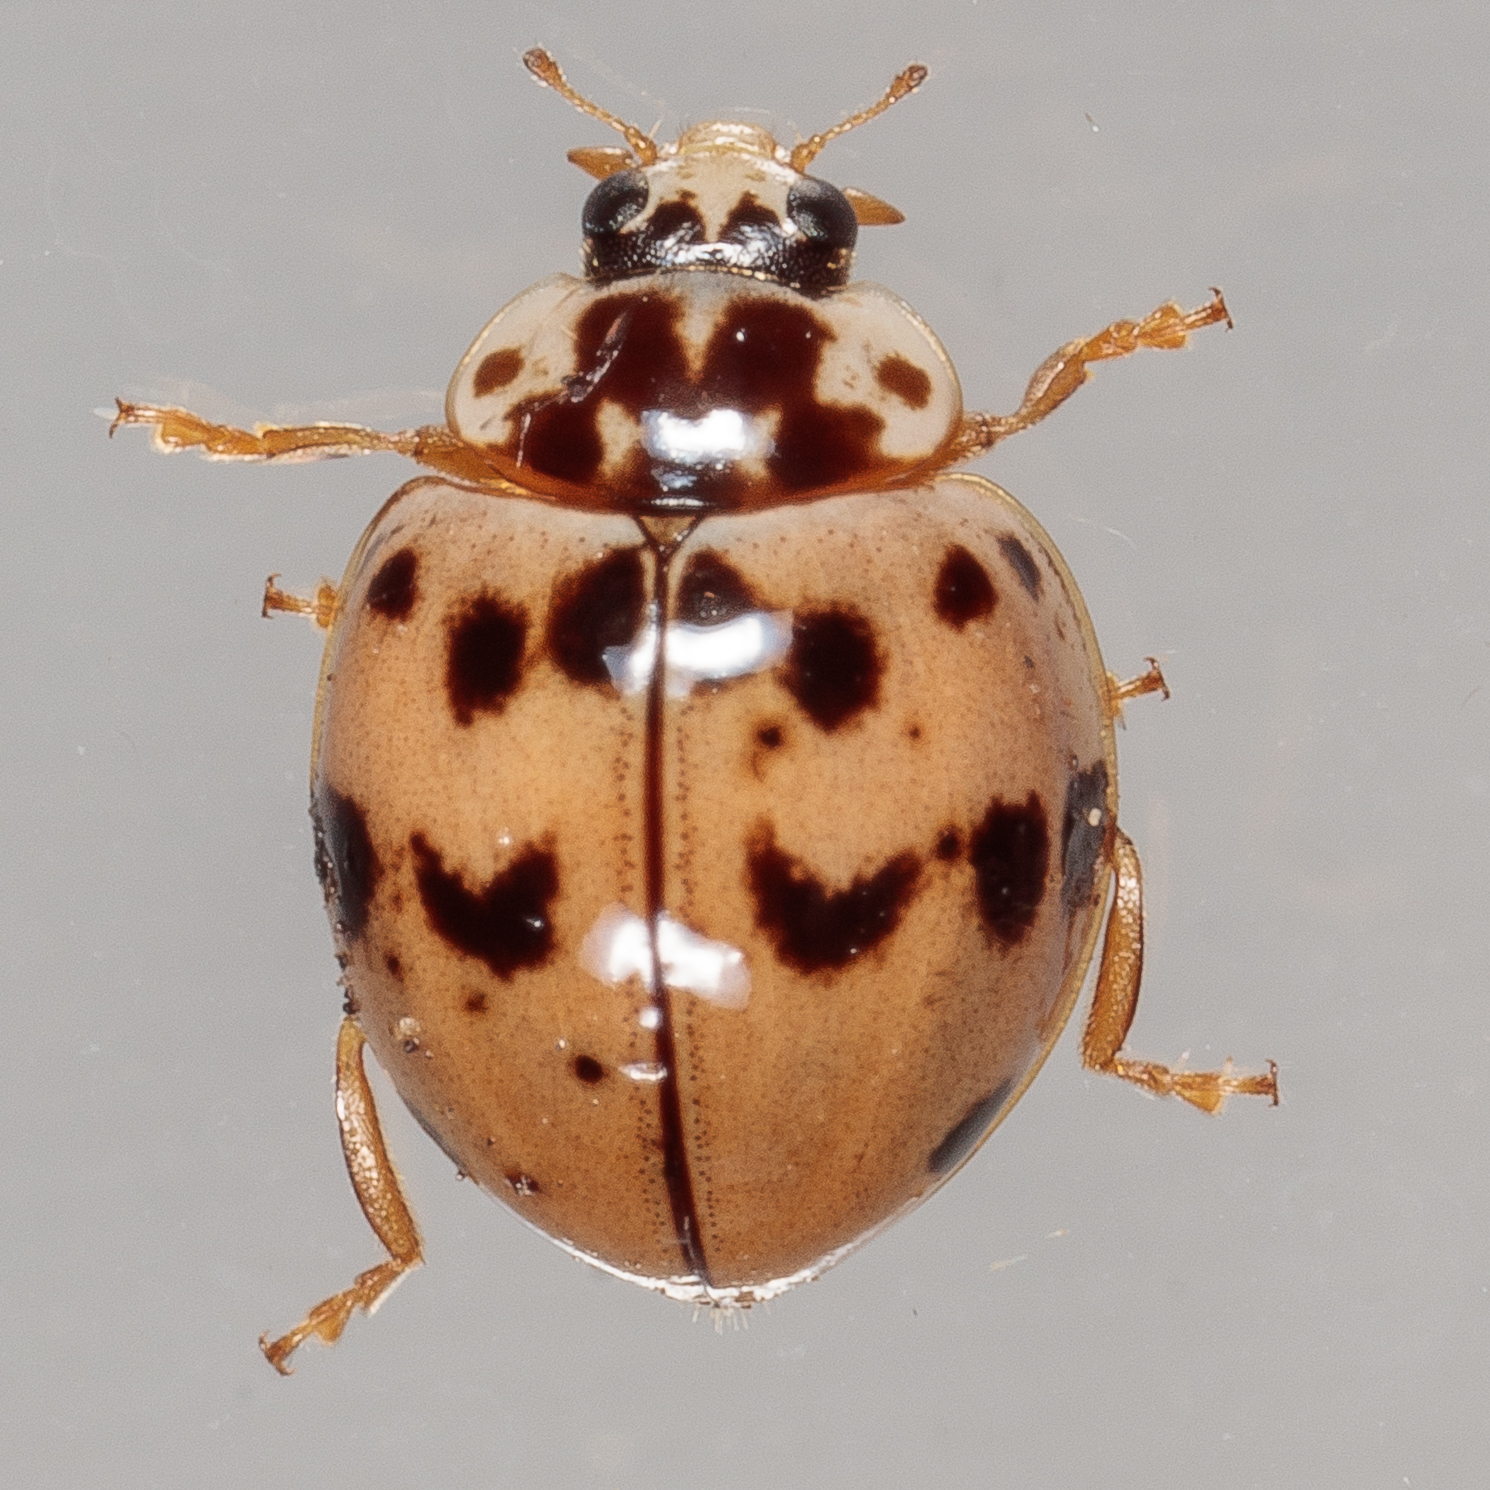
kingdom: Animalia
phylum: Arthropoda
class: Insecta
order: Coleoptera
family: Coccinellidae
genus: Olla
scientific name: Olla v-nigrum
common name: Ashy gray lady beetle
